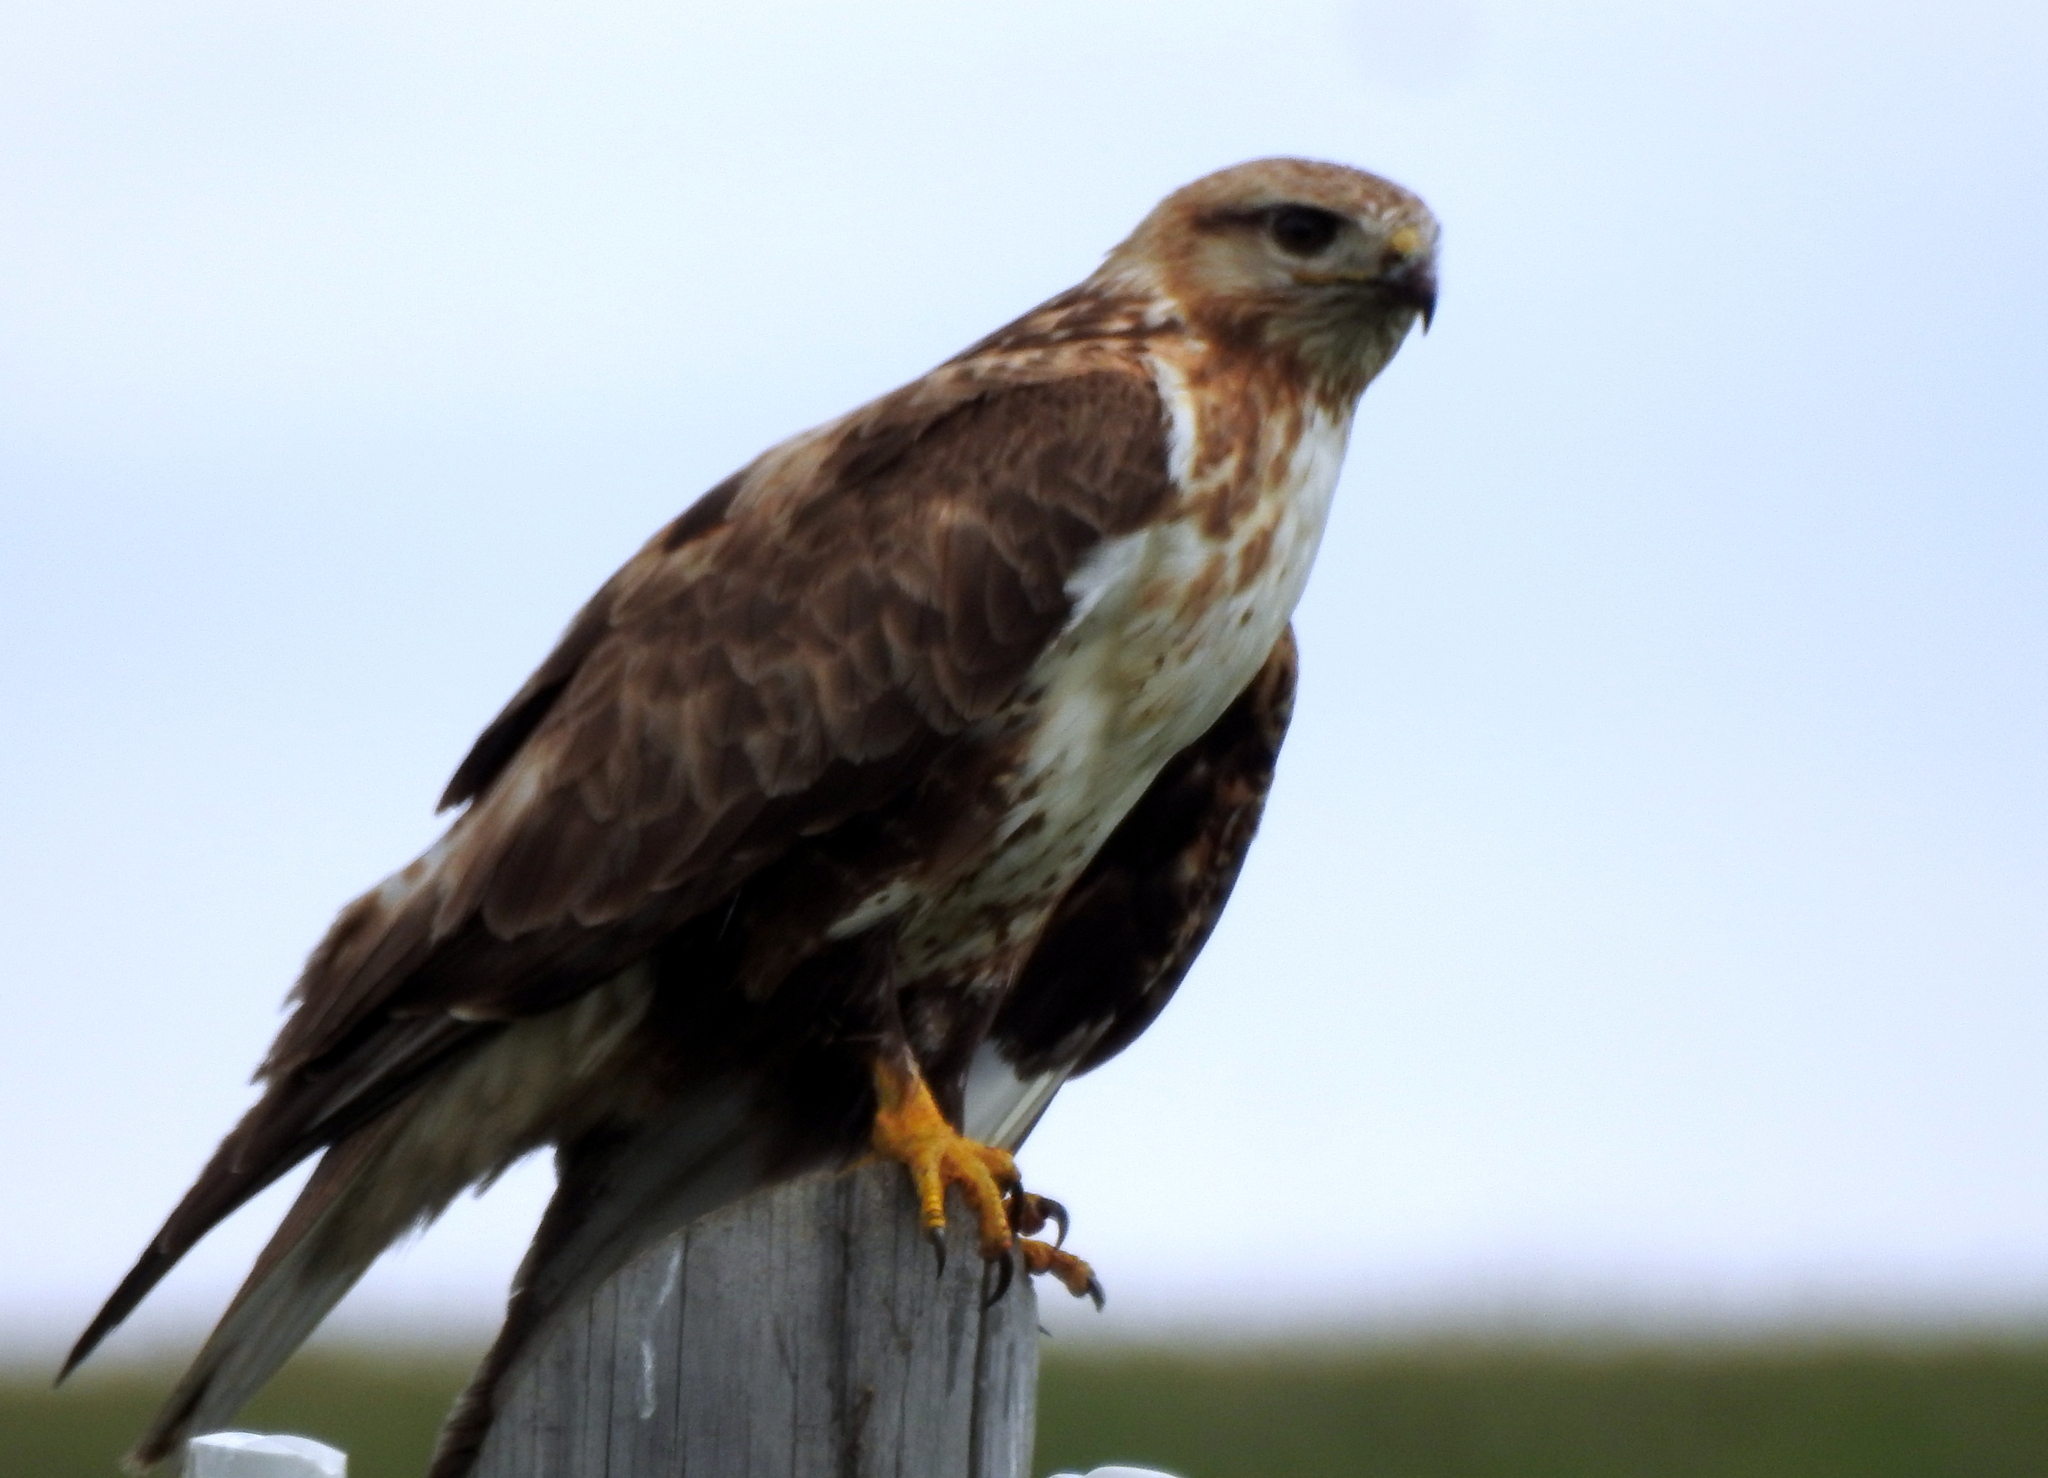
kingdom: Animalia
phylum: Chordata
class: Aves
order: Accipitriformes
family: Accipitridae
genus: Buteo
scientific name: Buteo hemilasius
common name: Upland buzzard
